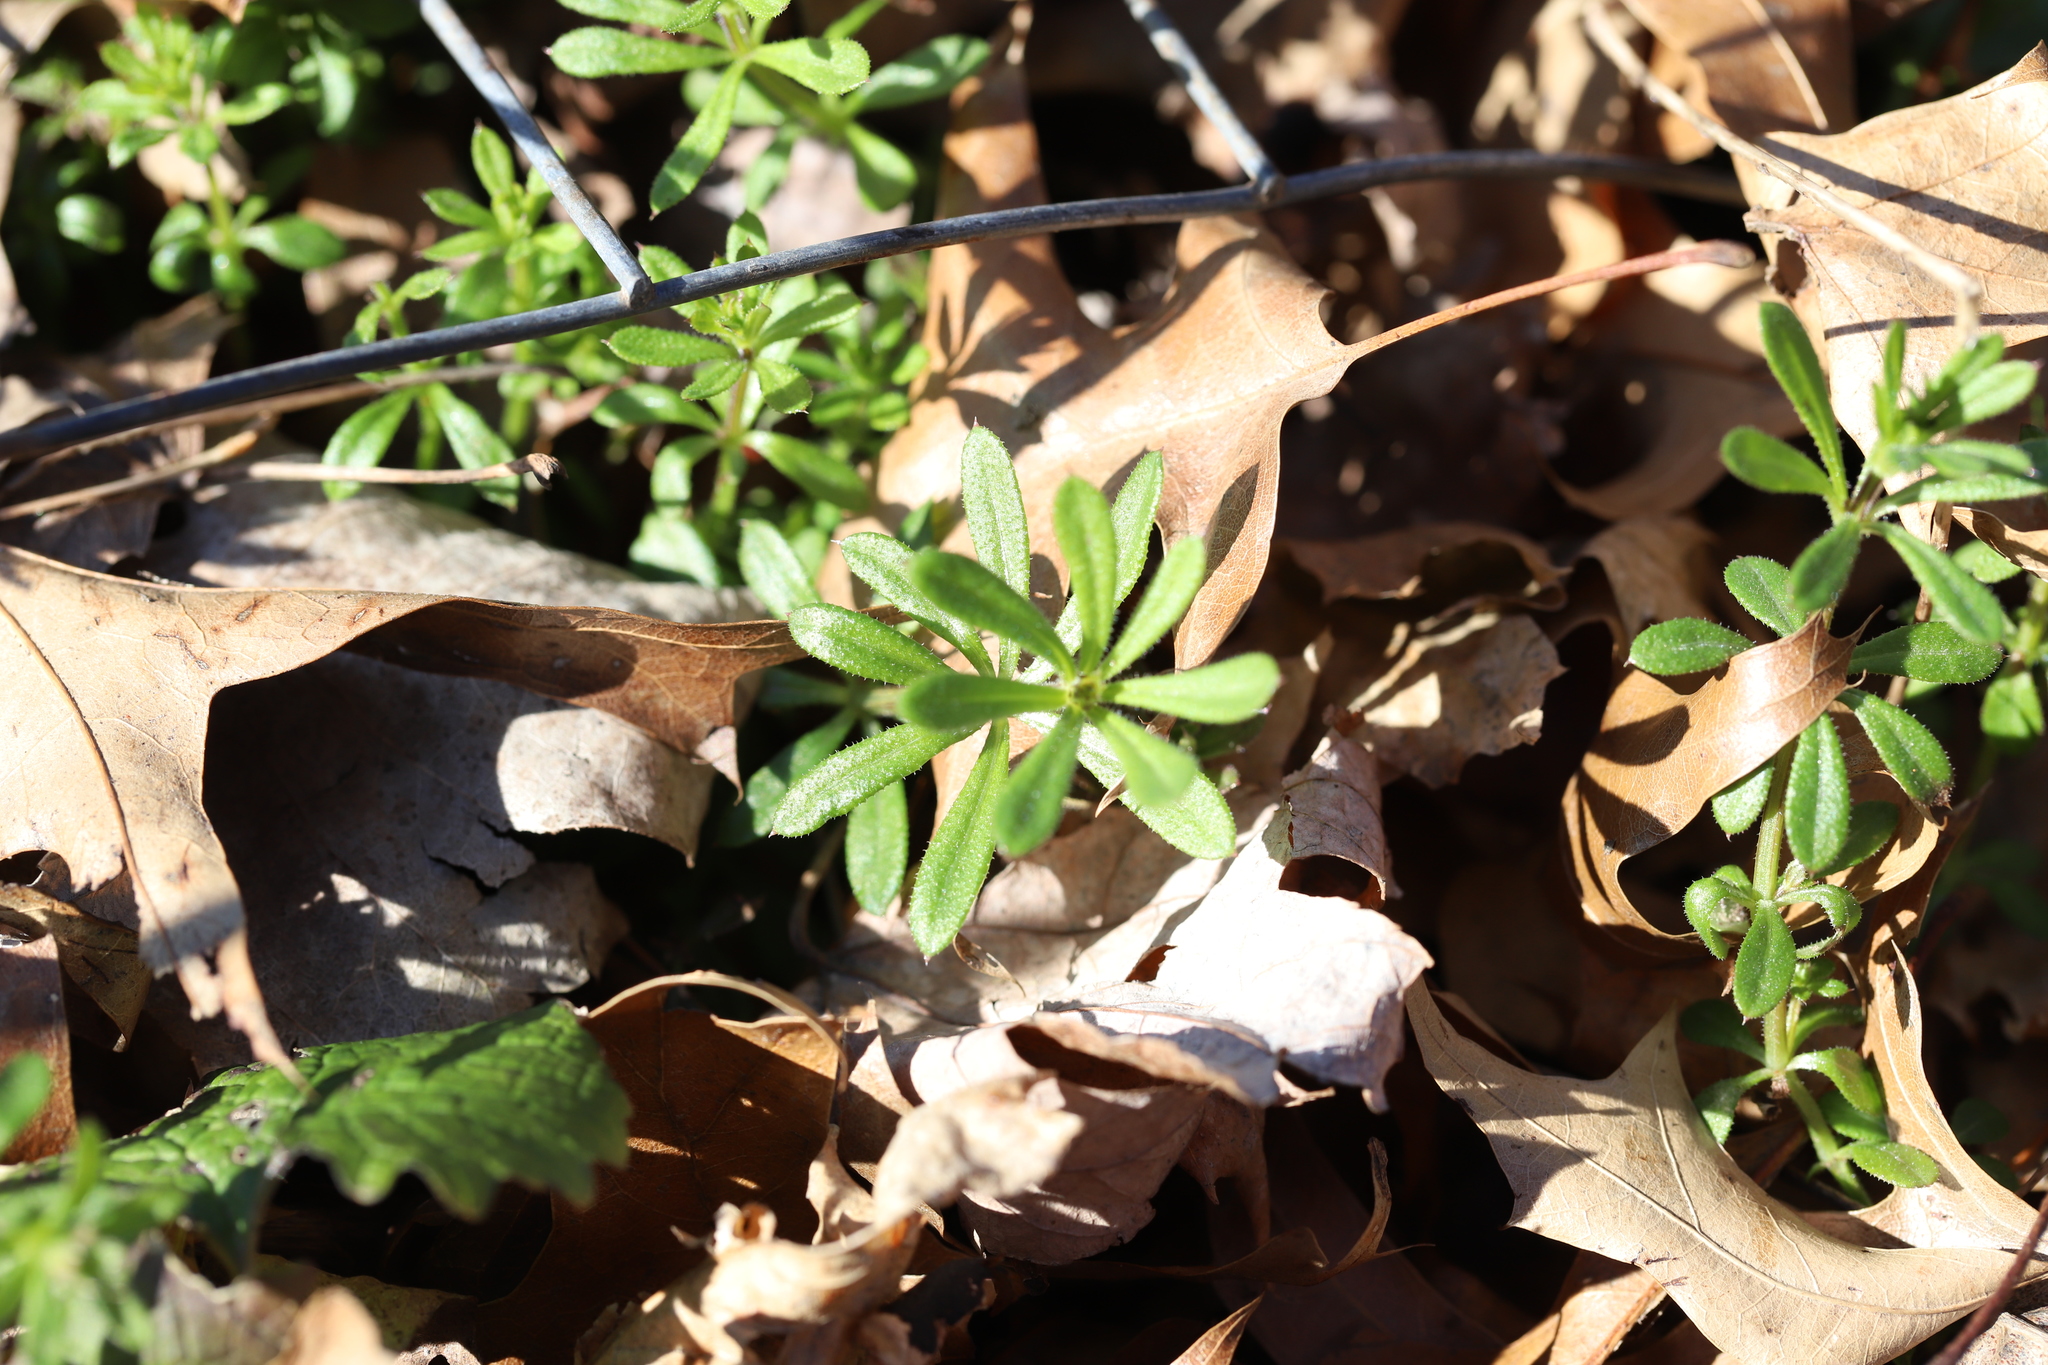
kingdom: Plantae
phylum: Tracheophyta
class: Magnoliopsida
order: Gentianales
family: Rubiaceae
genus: Galium
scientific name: Galium aparine
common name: Cleavers
